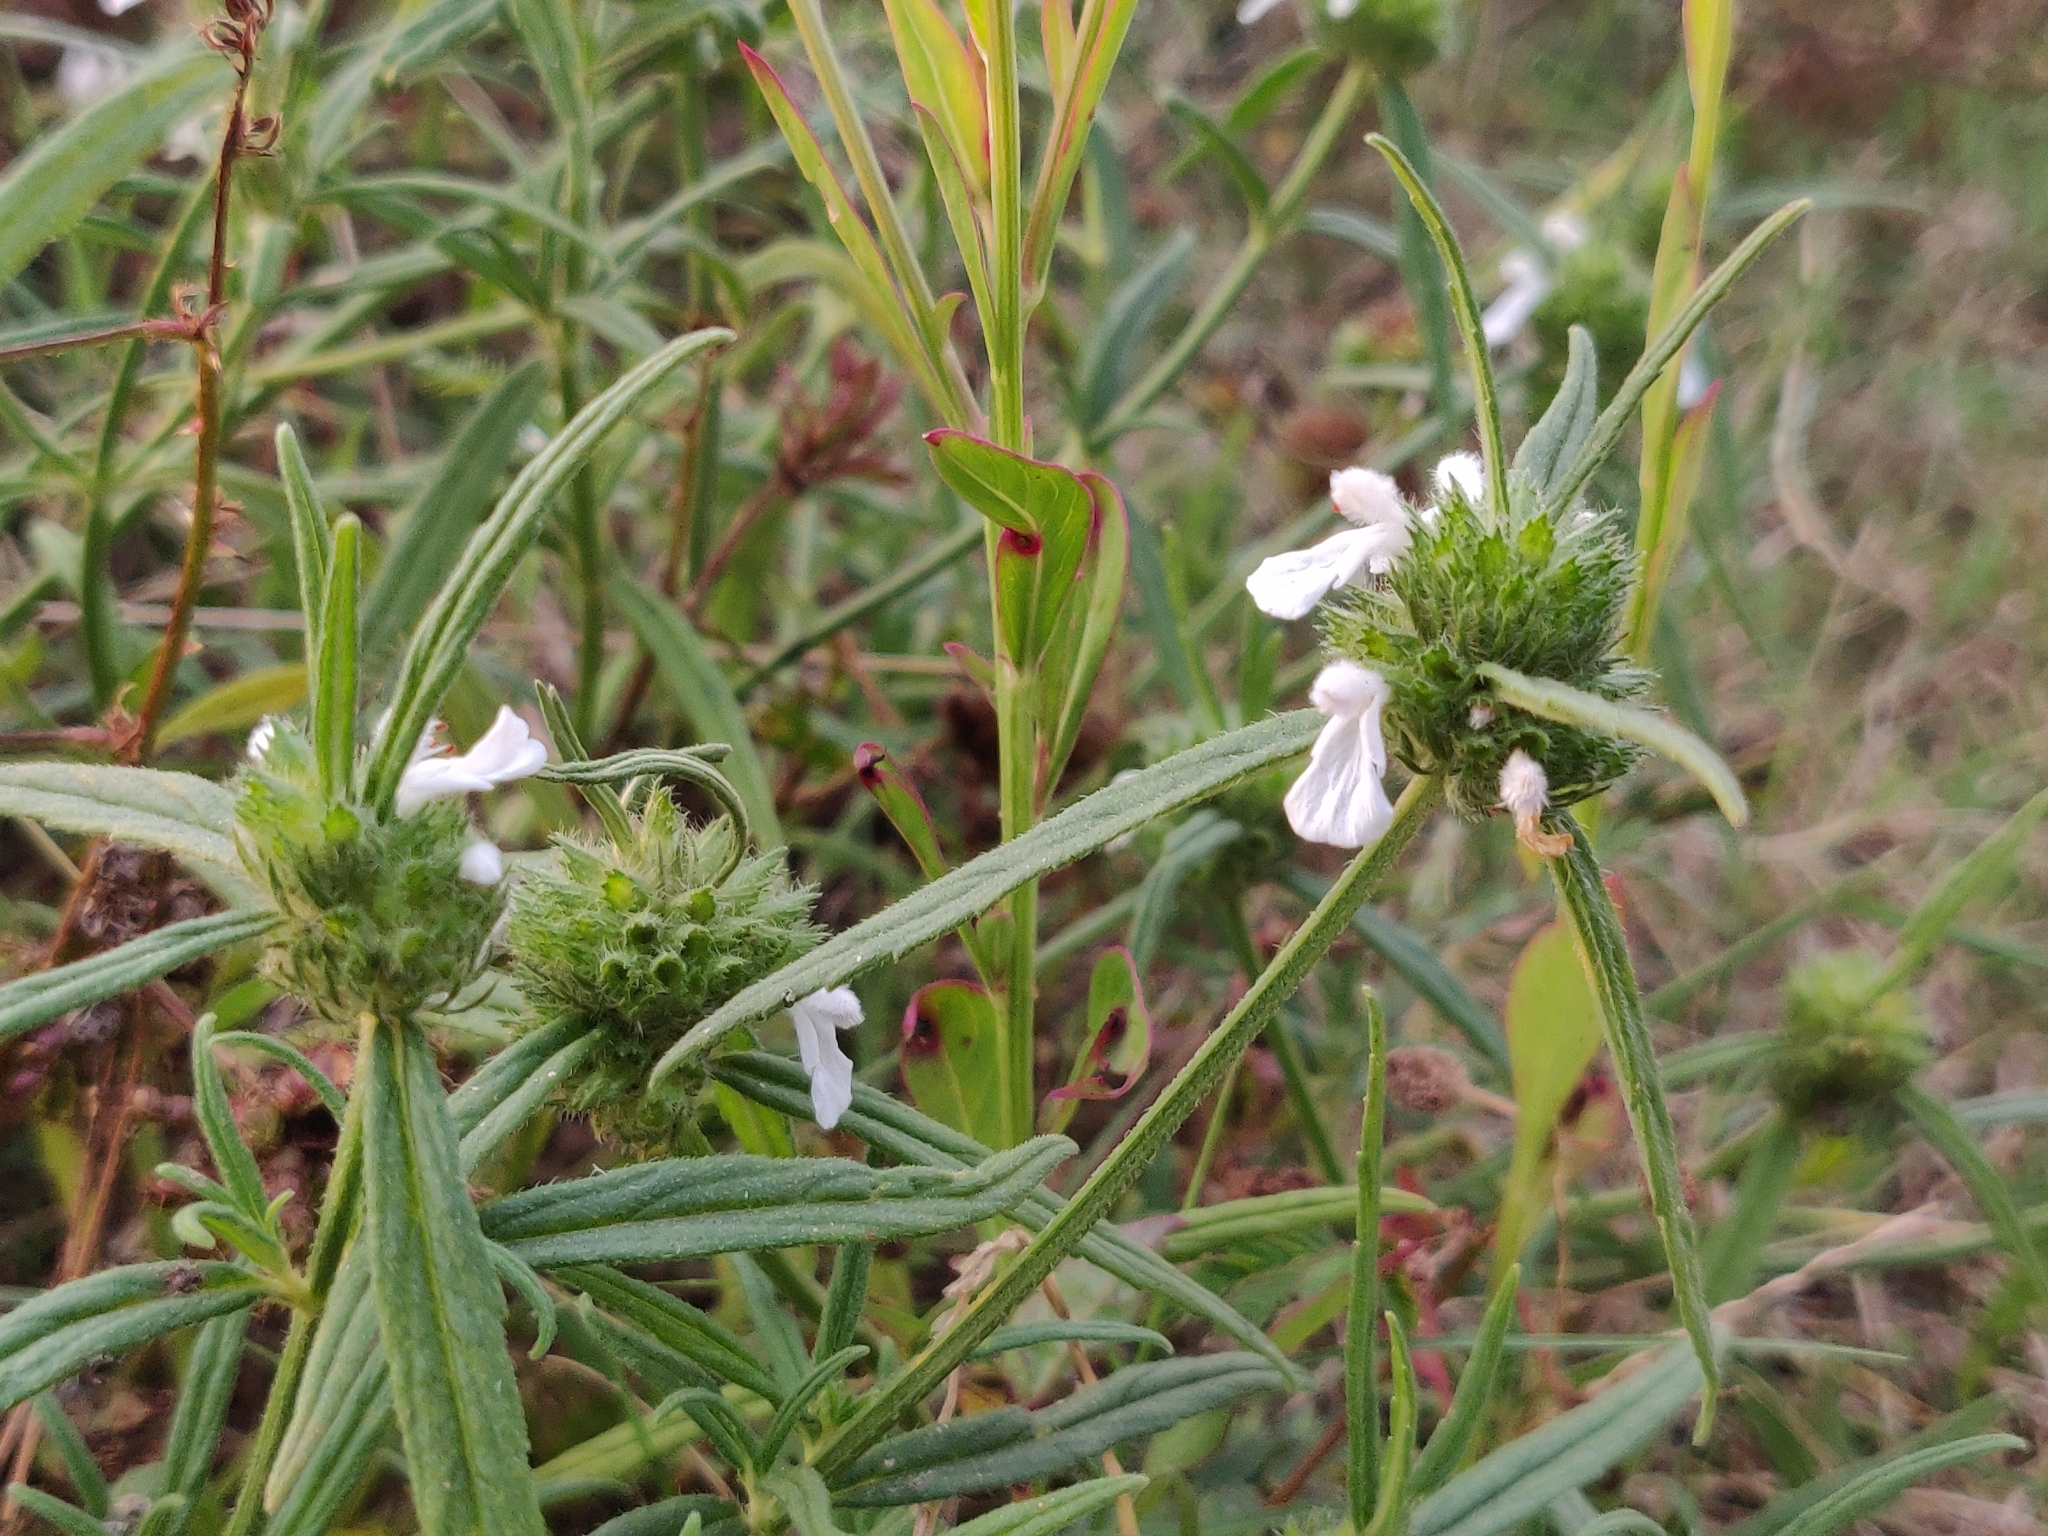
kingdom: Plantae
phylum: Tracheophyta
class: Magnoliopsida
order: Lamiales
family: Lamiaceae
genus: Leucas
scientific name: Leucas aspera
